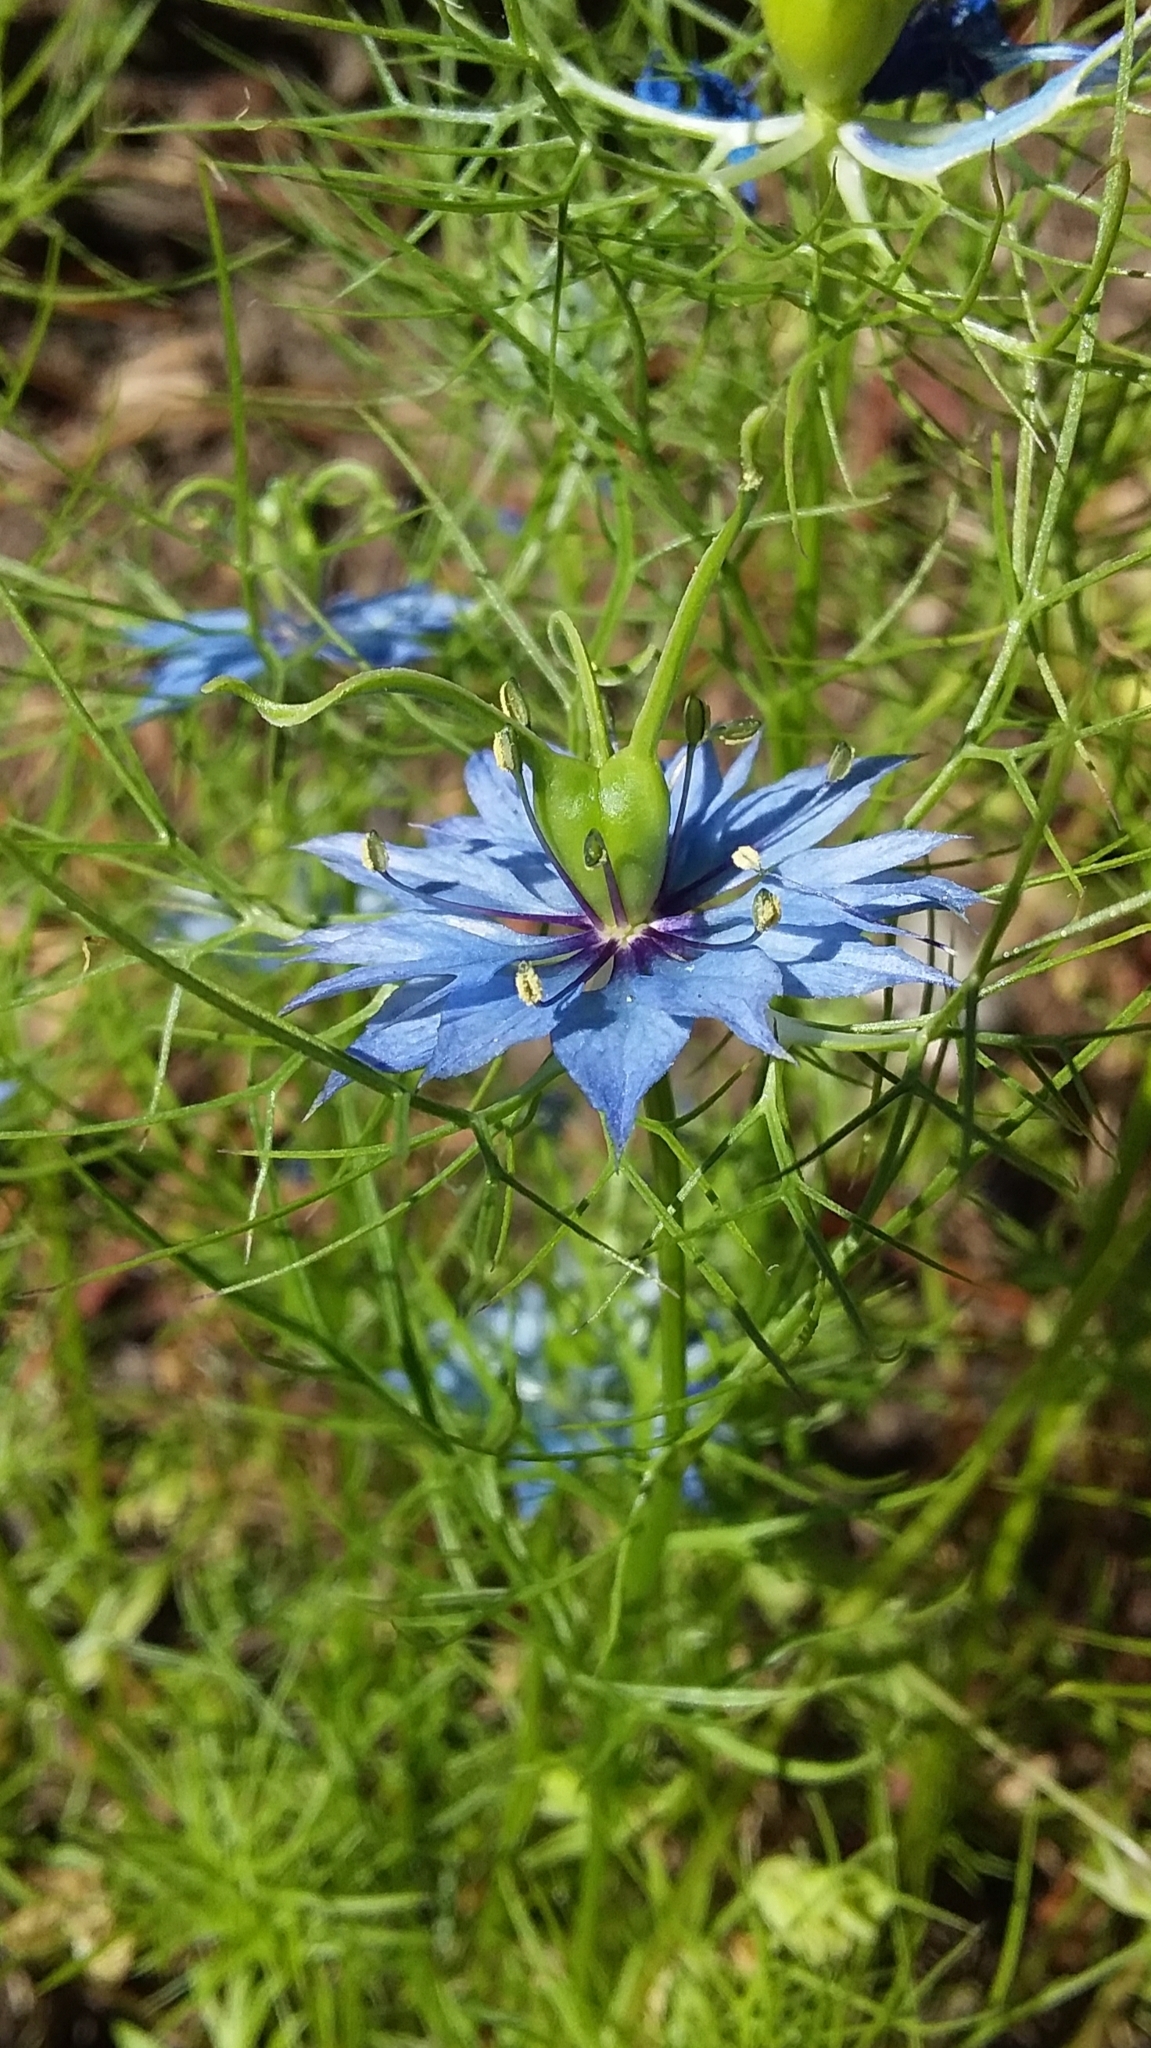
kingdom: Plantae
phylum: Tracheophyta
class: Magnoliopsida
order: Ranunculales
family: Ranunculaceae
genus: Nigella
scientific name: Nigella damascena
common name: Love-in-a-mist
